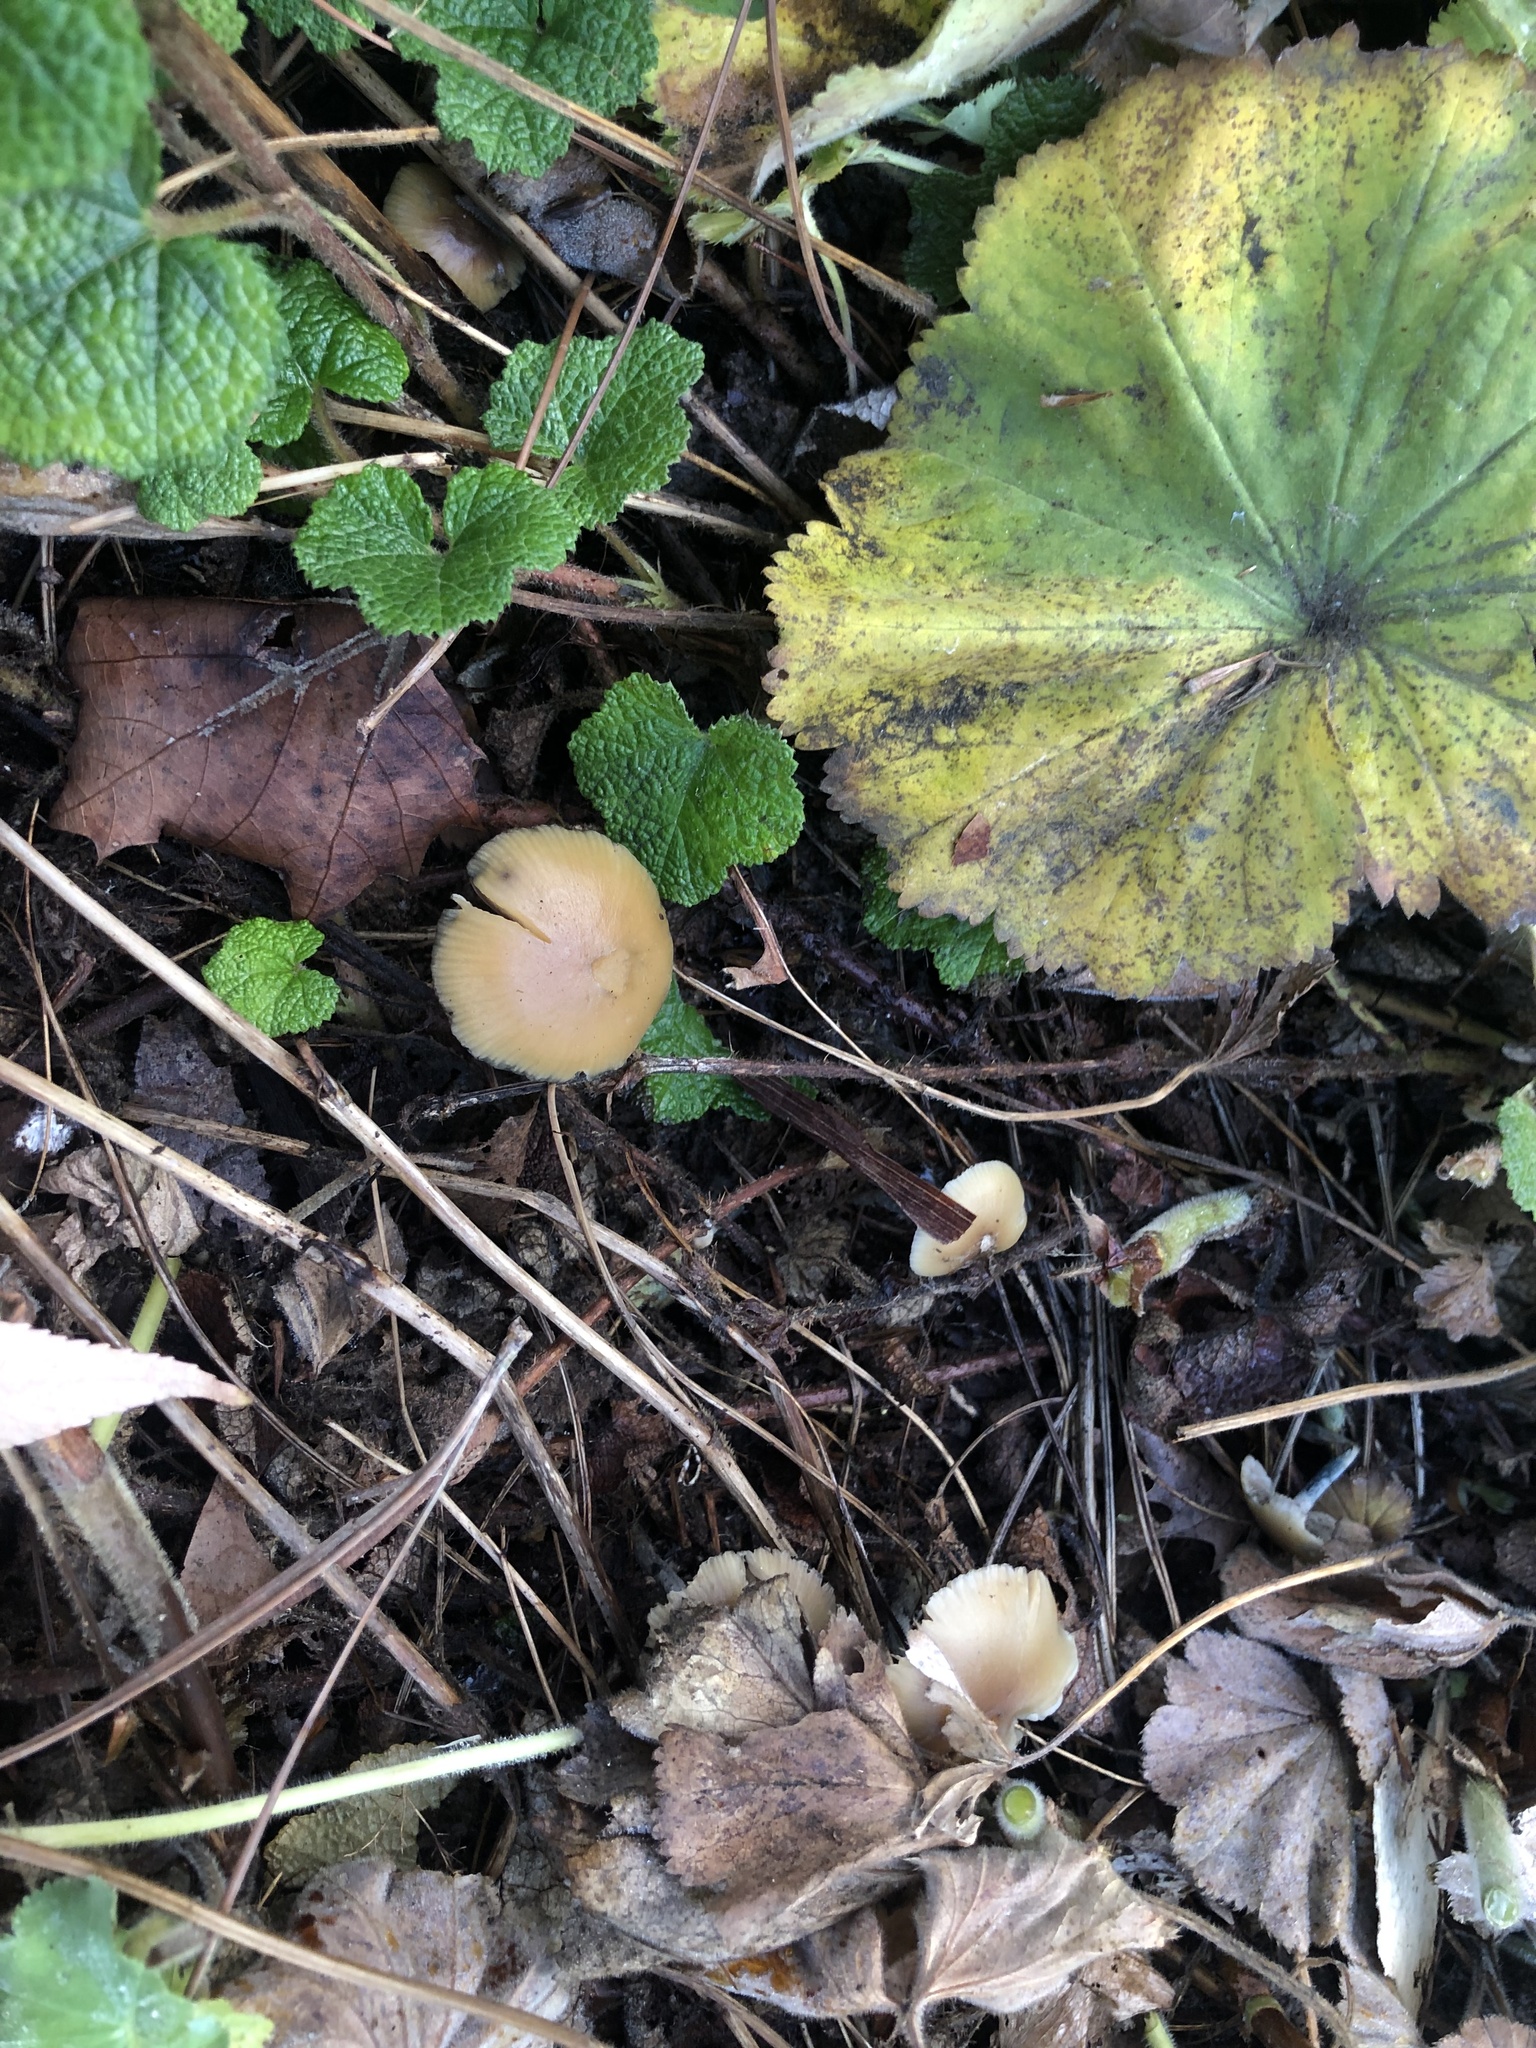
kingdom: Fungi
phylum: Basidiomycota
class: Agaricomycetes
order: Agaricales
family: Hymenogastraceae
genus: Psilocybe
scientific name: Psilocybe allenii
